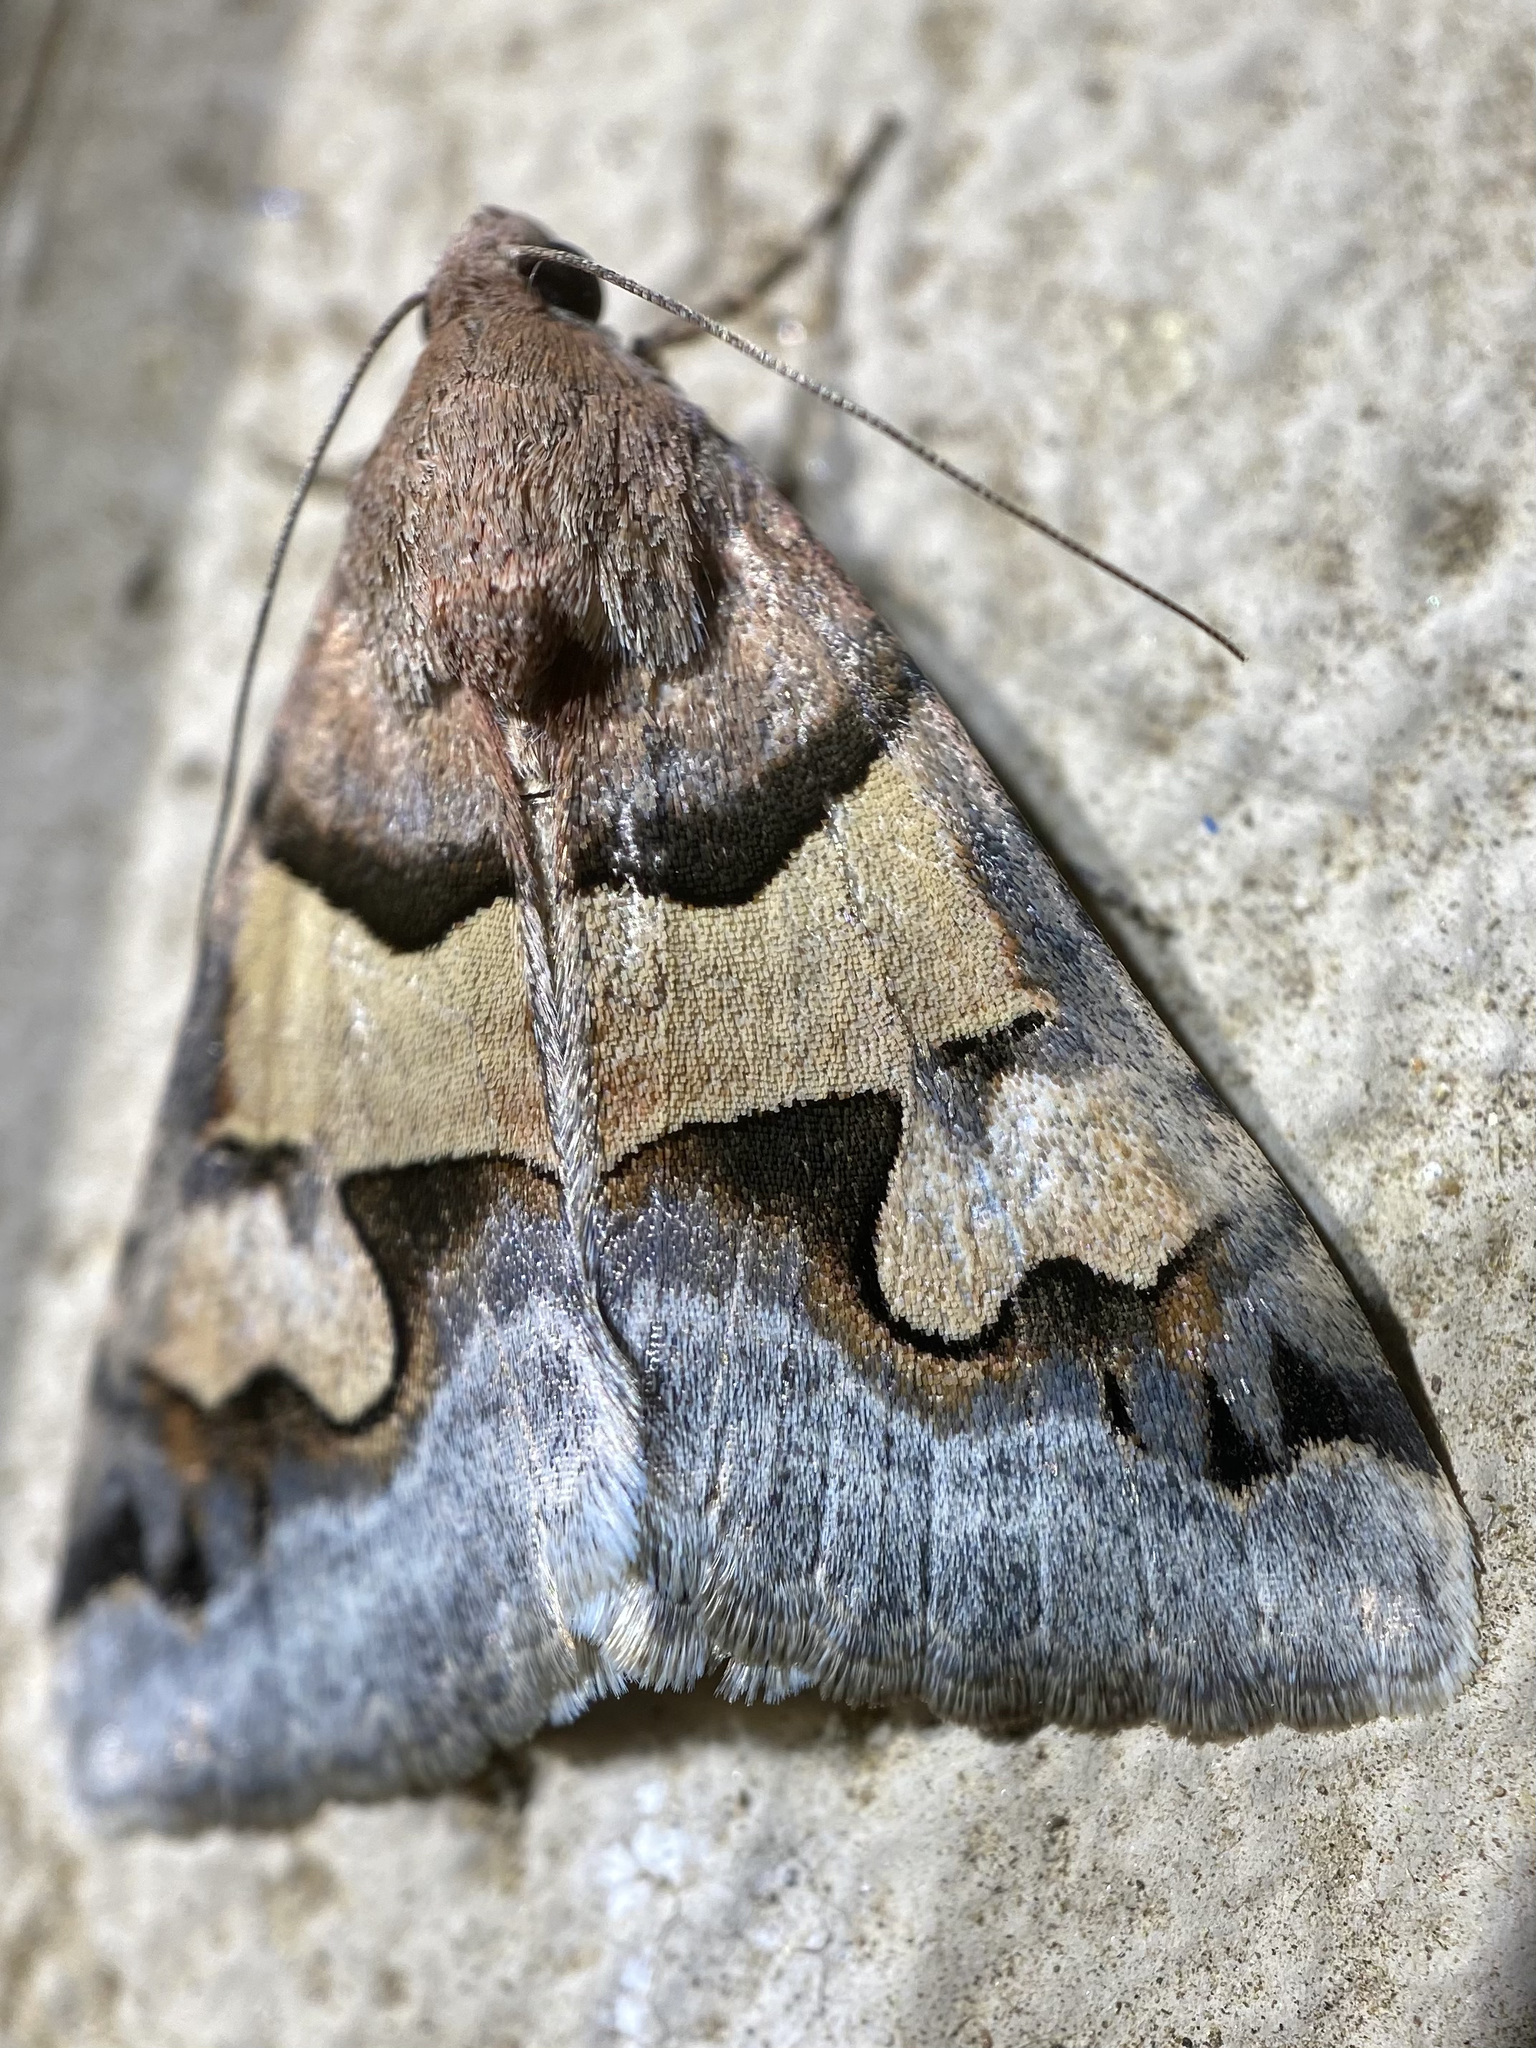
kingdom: Animalia
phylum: Arthropoda
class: Insecta
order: Lepidoptera
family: Erebidae
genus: Drasteria
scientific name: Drasteria pallescens
